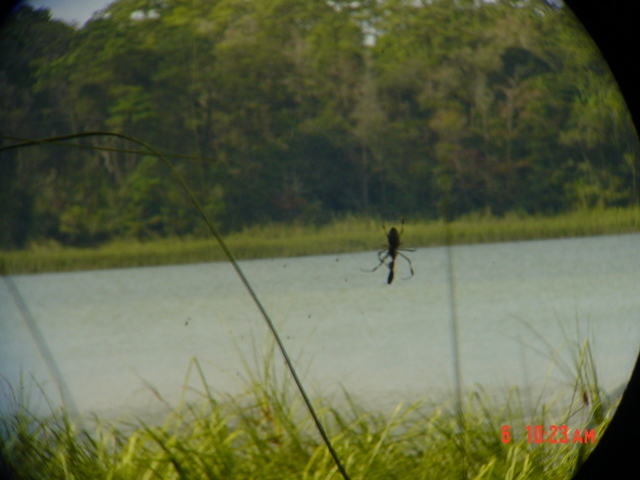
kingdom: Animalia
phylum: Arthropoda
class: Arachnida
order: Araneae
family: Araneidae
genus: Trichonephila
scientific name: Trichonephila clavipes
